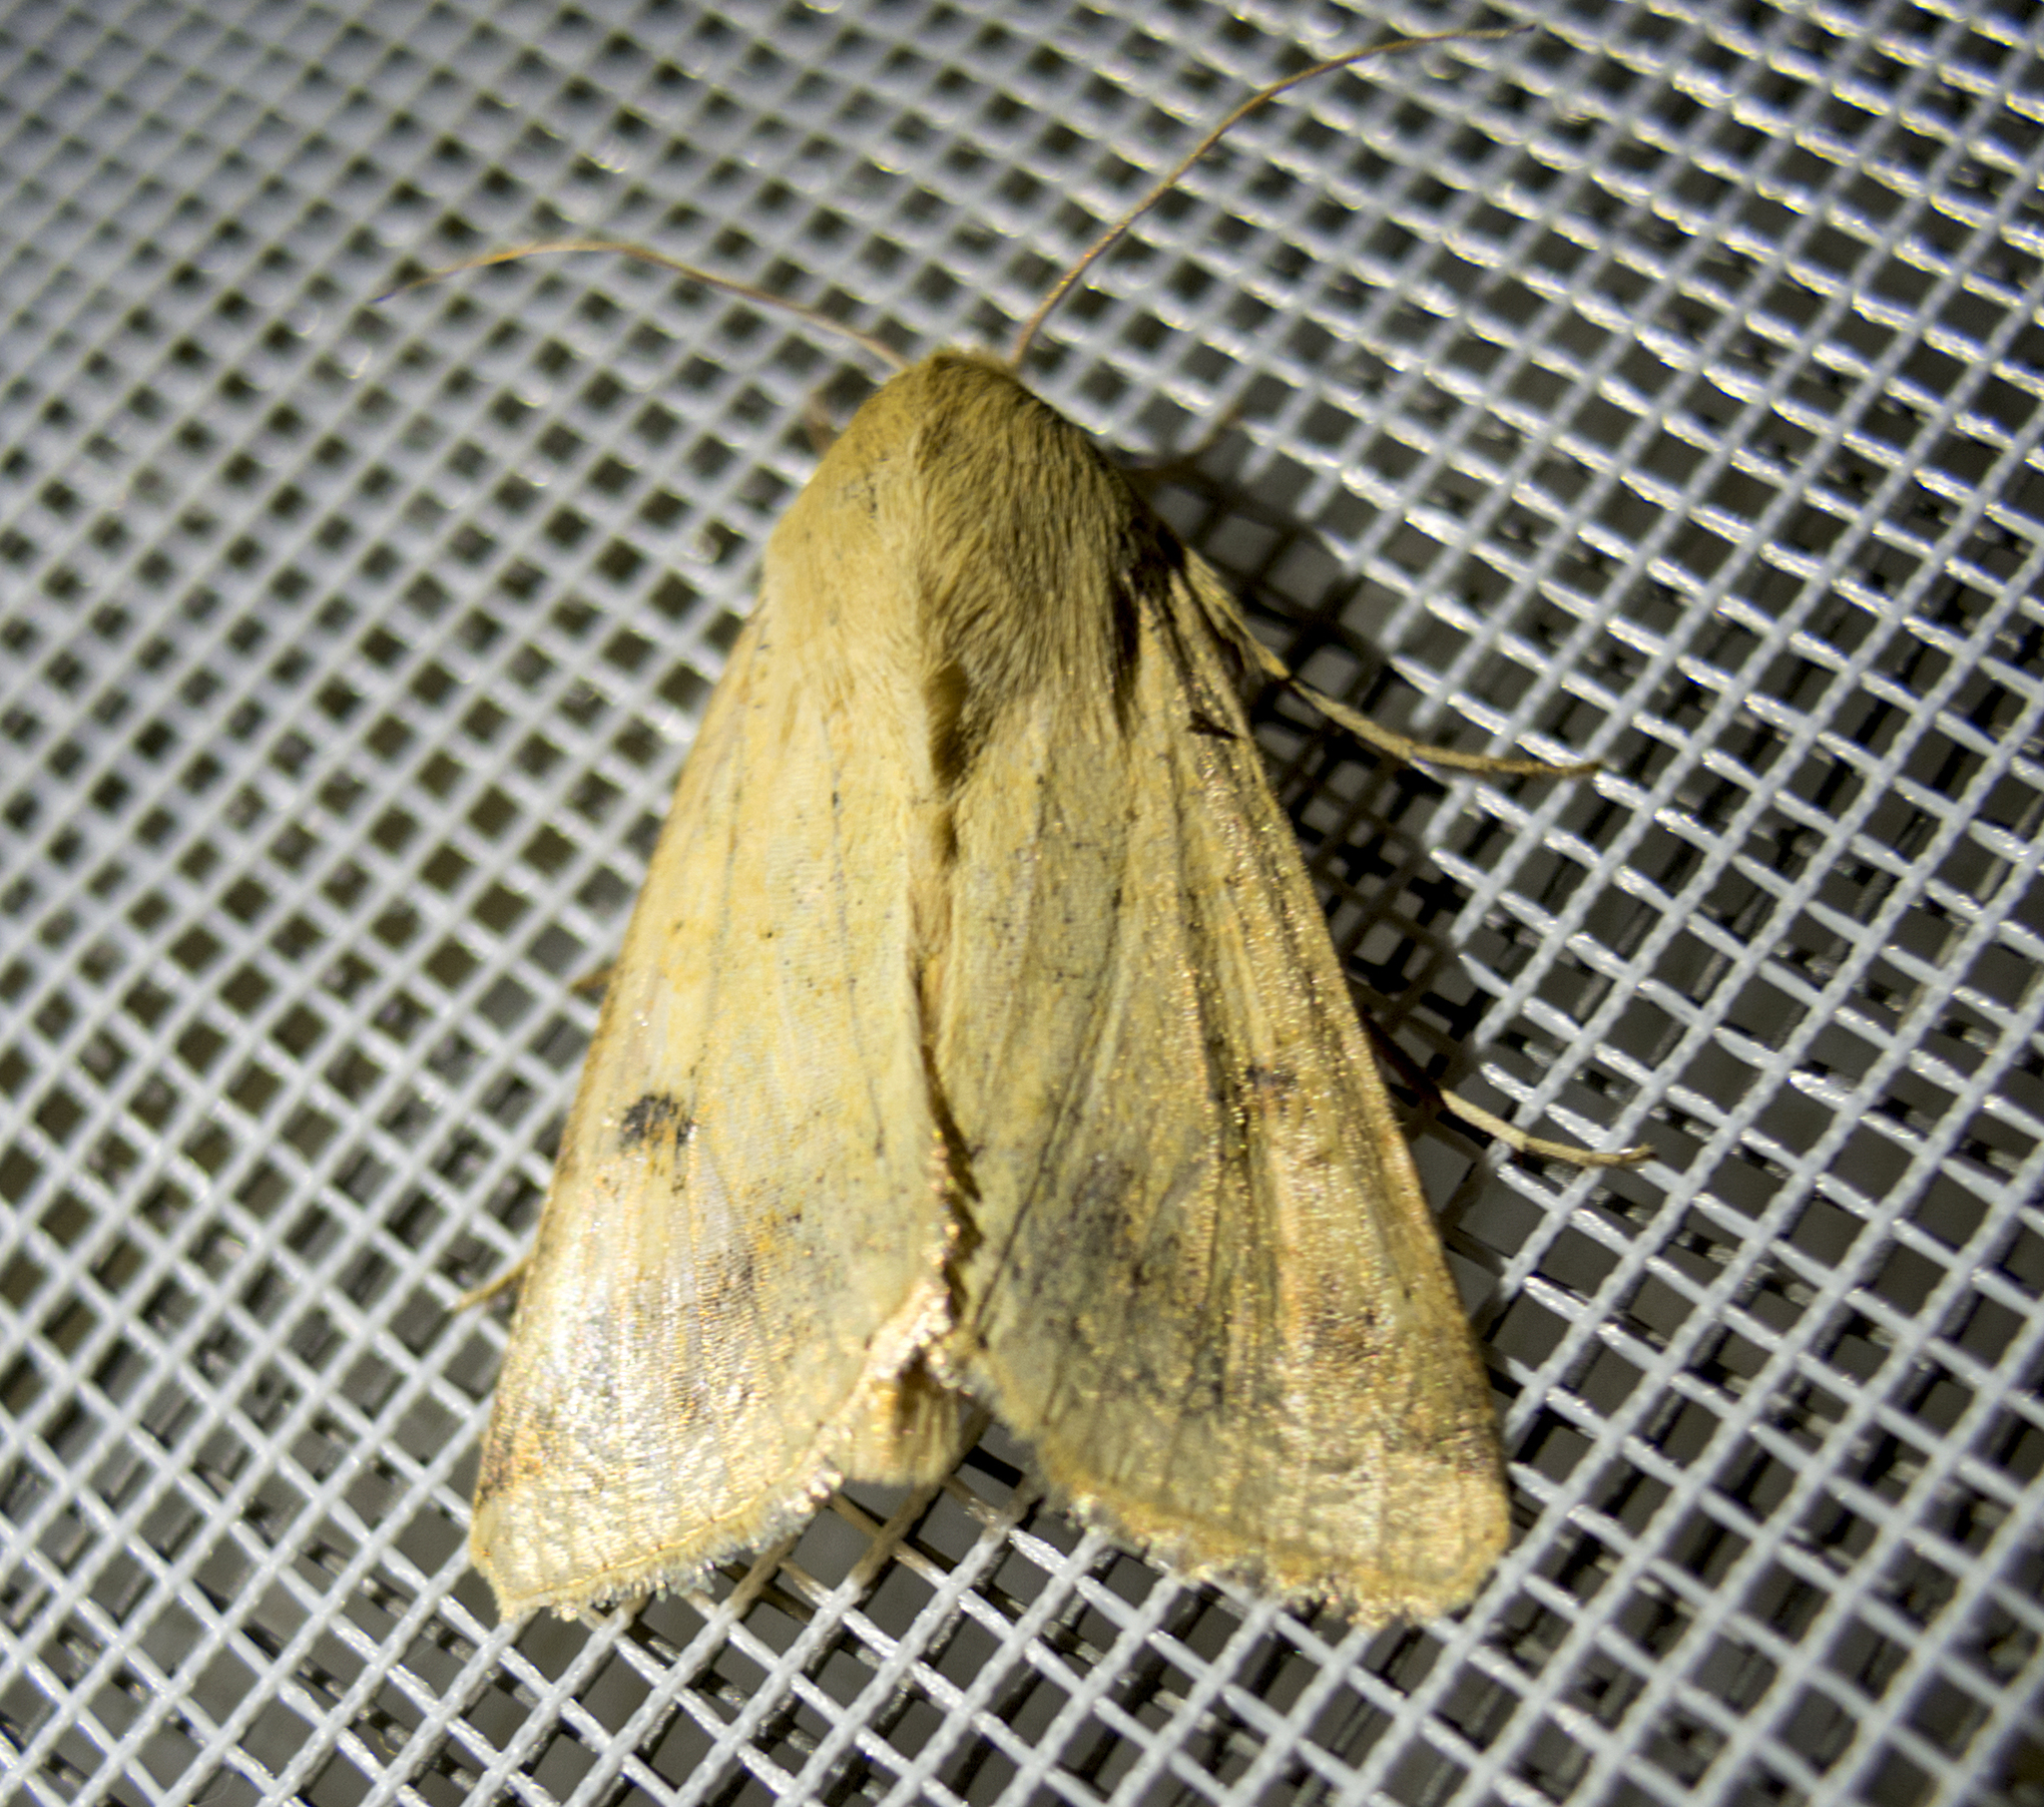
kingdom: Animalia
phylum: Arthropoda
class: Insecta
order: Lepidoptera
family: Noctuidae
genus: Helicoverpa
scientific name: Helicoverpa armigera
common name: Cotton bollworm
